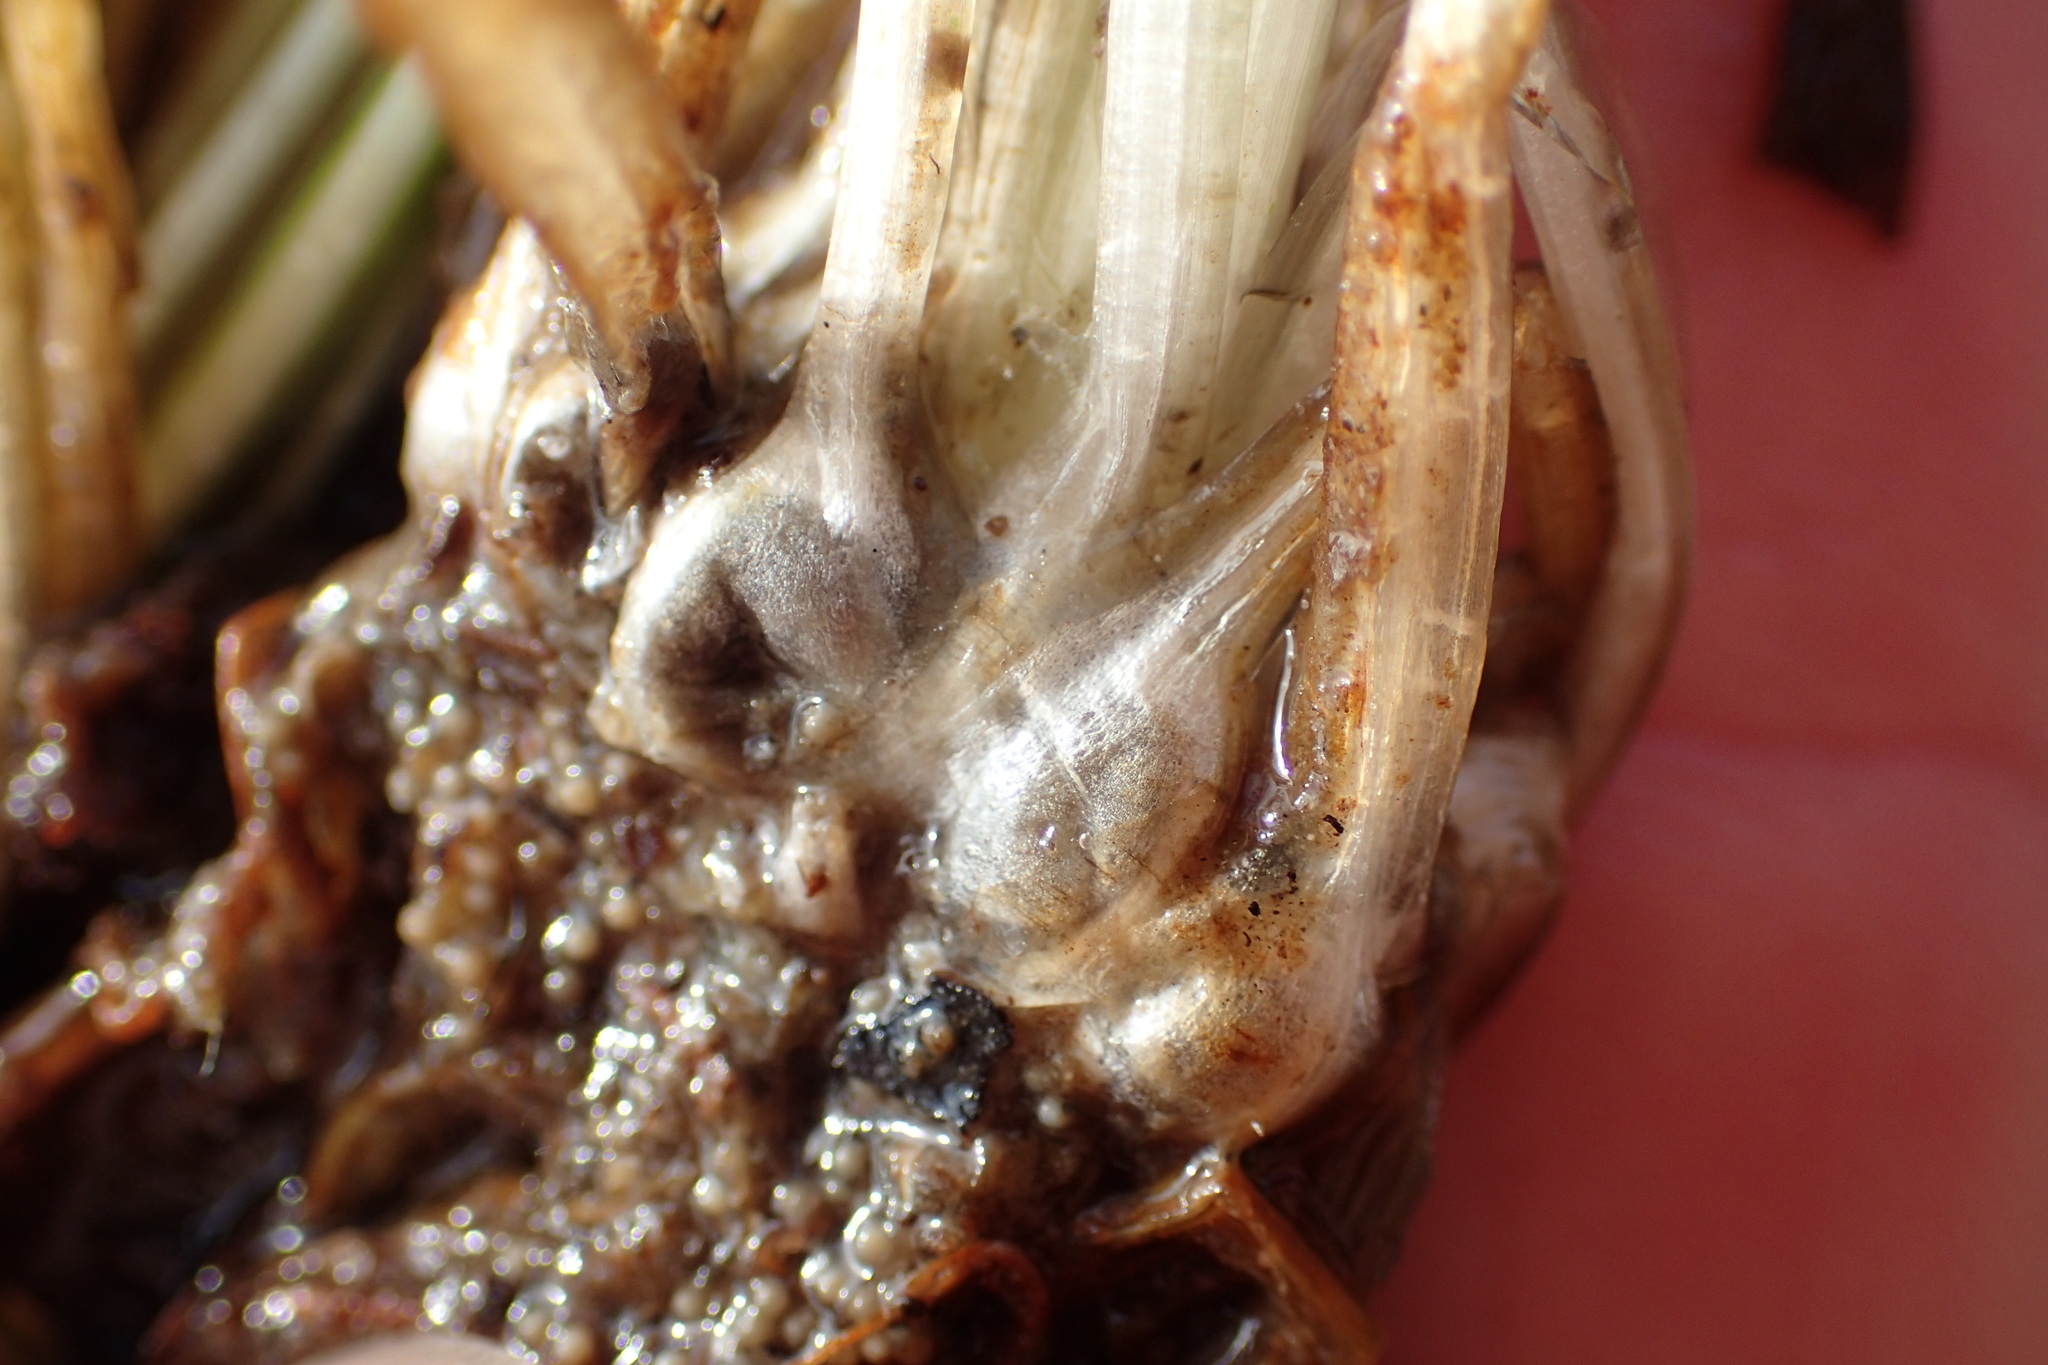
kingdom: Plantae
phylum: Tracheophyta
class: Lycopodiopsida
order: Isoetales
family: Isoetaceae
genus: Isoetes
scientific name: Isoetes echinospora
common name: Spring quillwort
